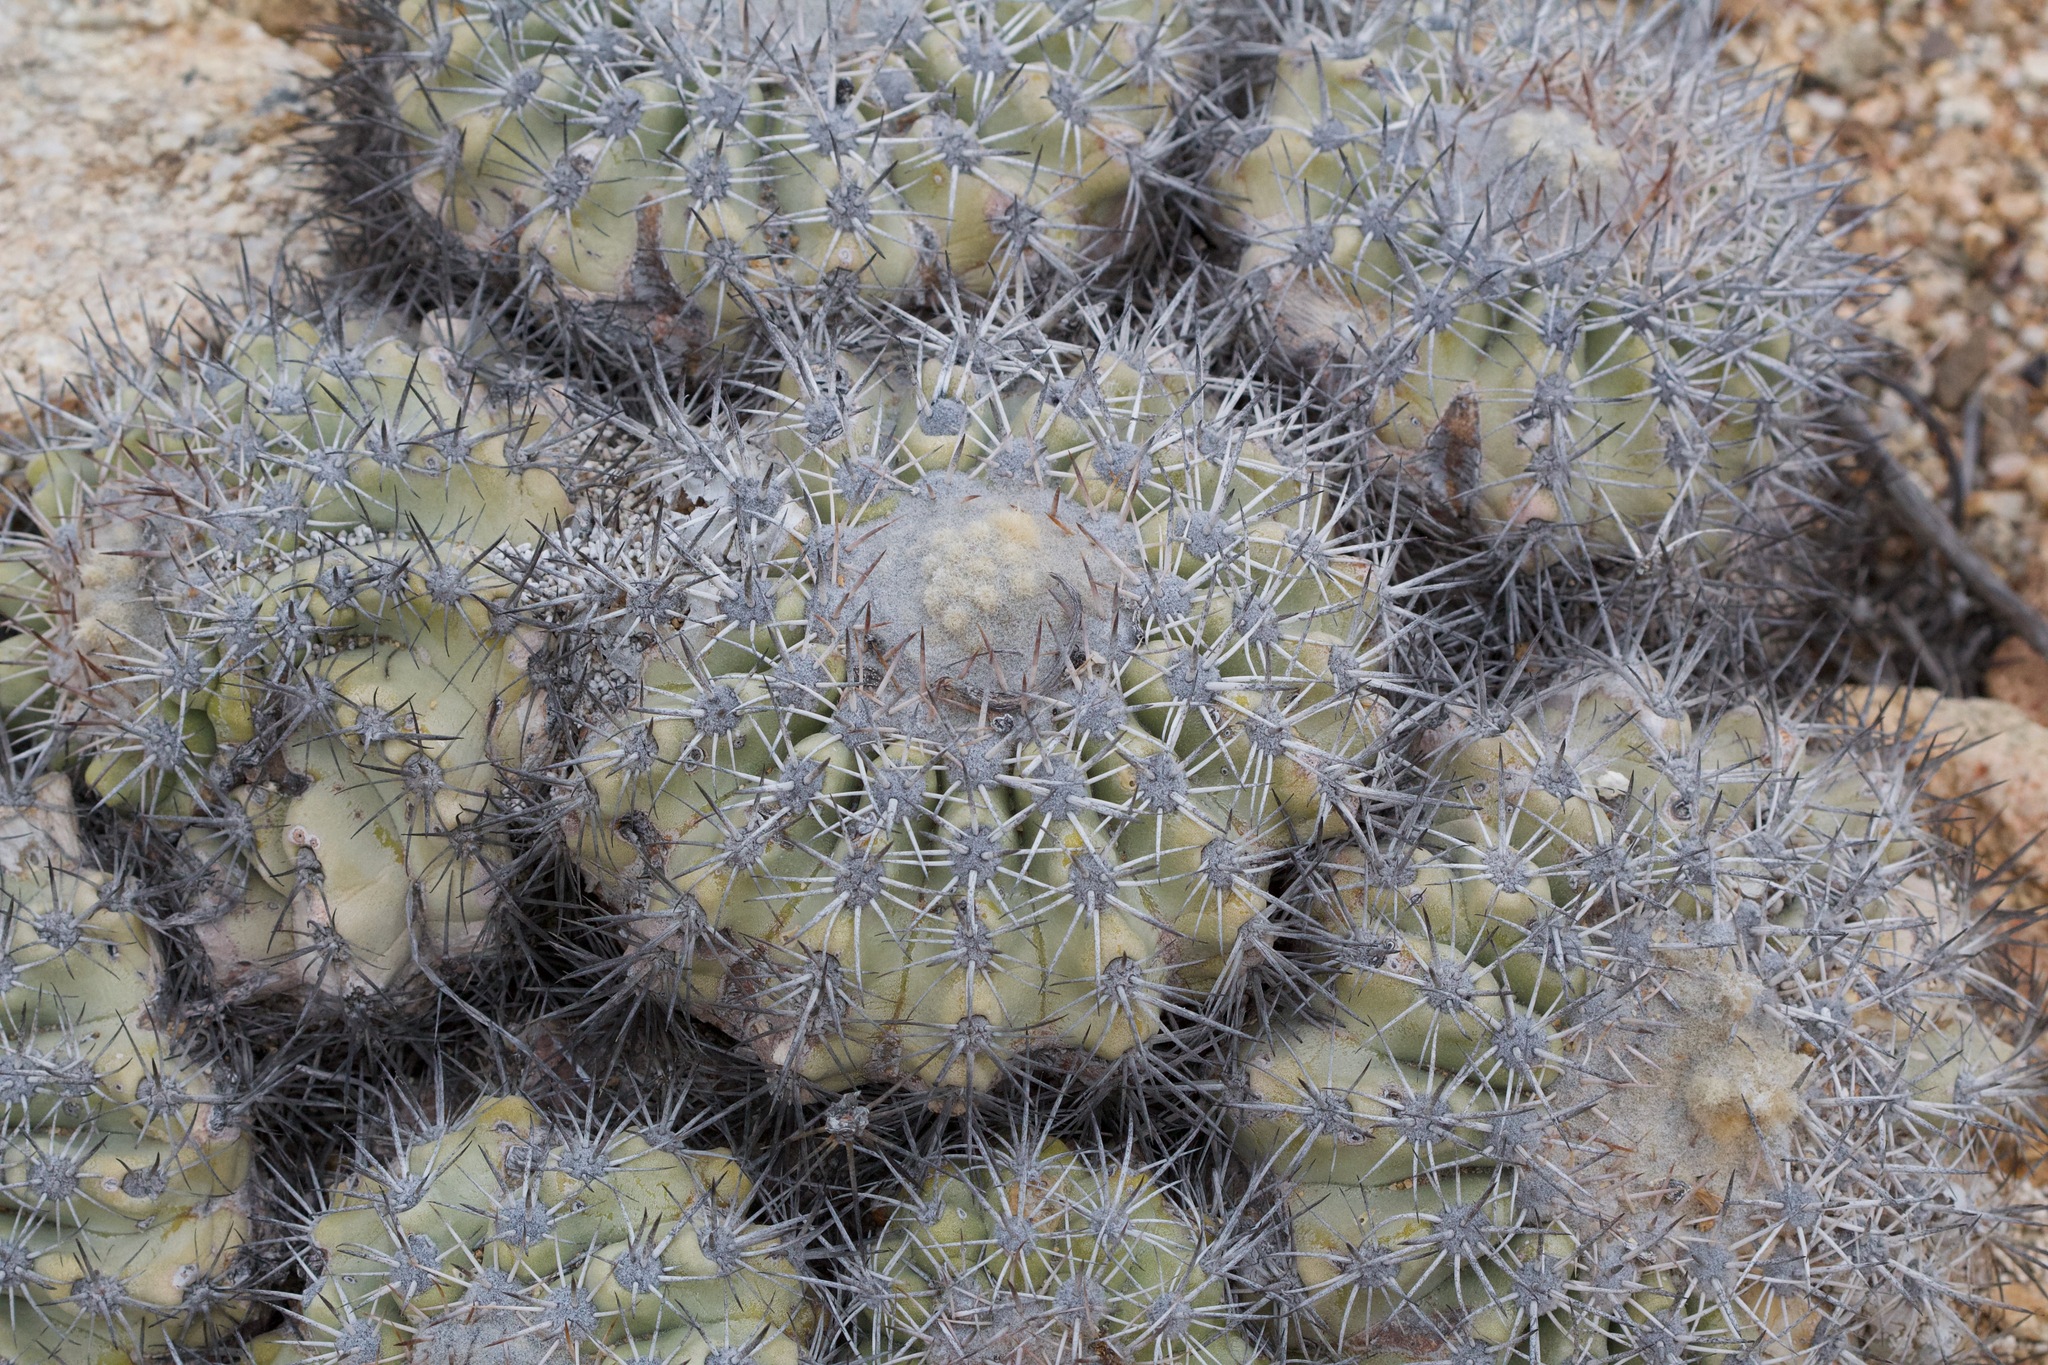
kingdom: Plantae
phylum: Tracheophyta
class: Magnoliopsida
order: Caryophyllales
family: Cactaceae
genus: Copiapoa
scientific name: Copiapoa cinerascens
